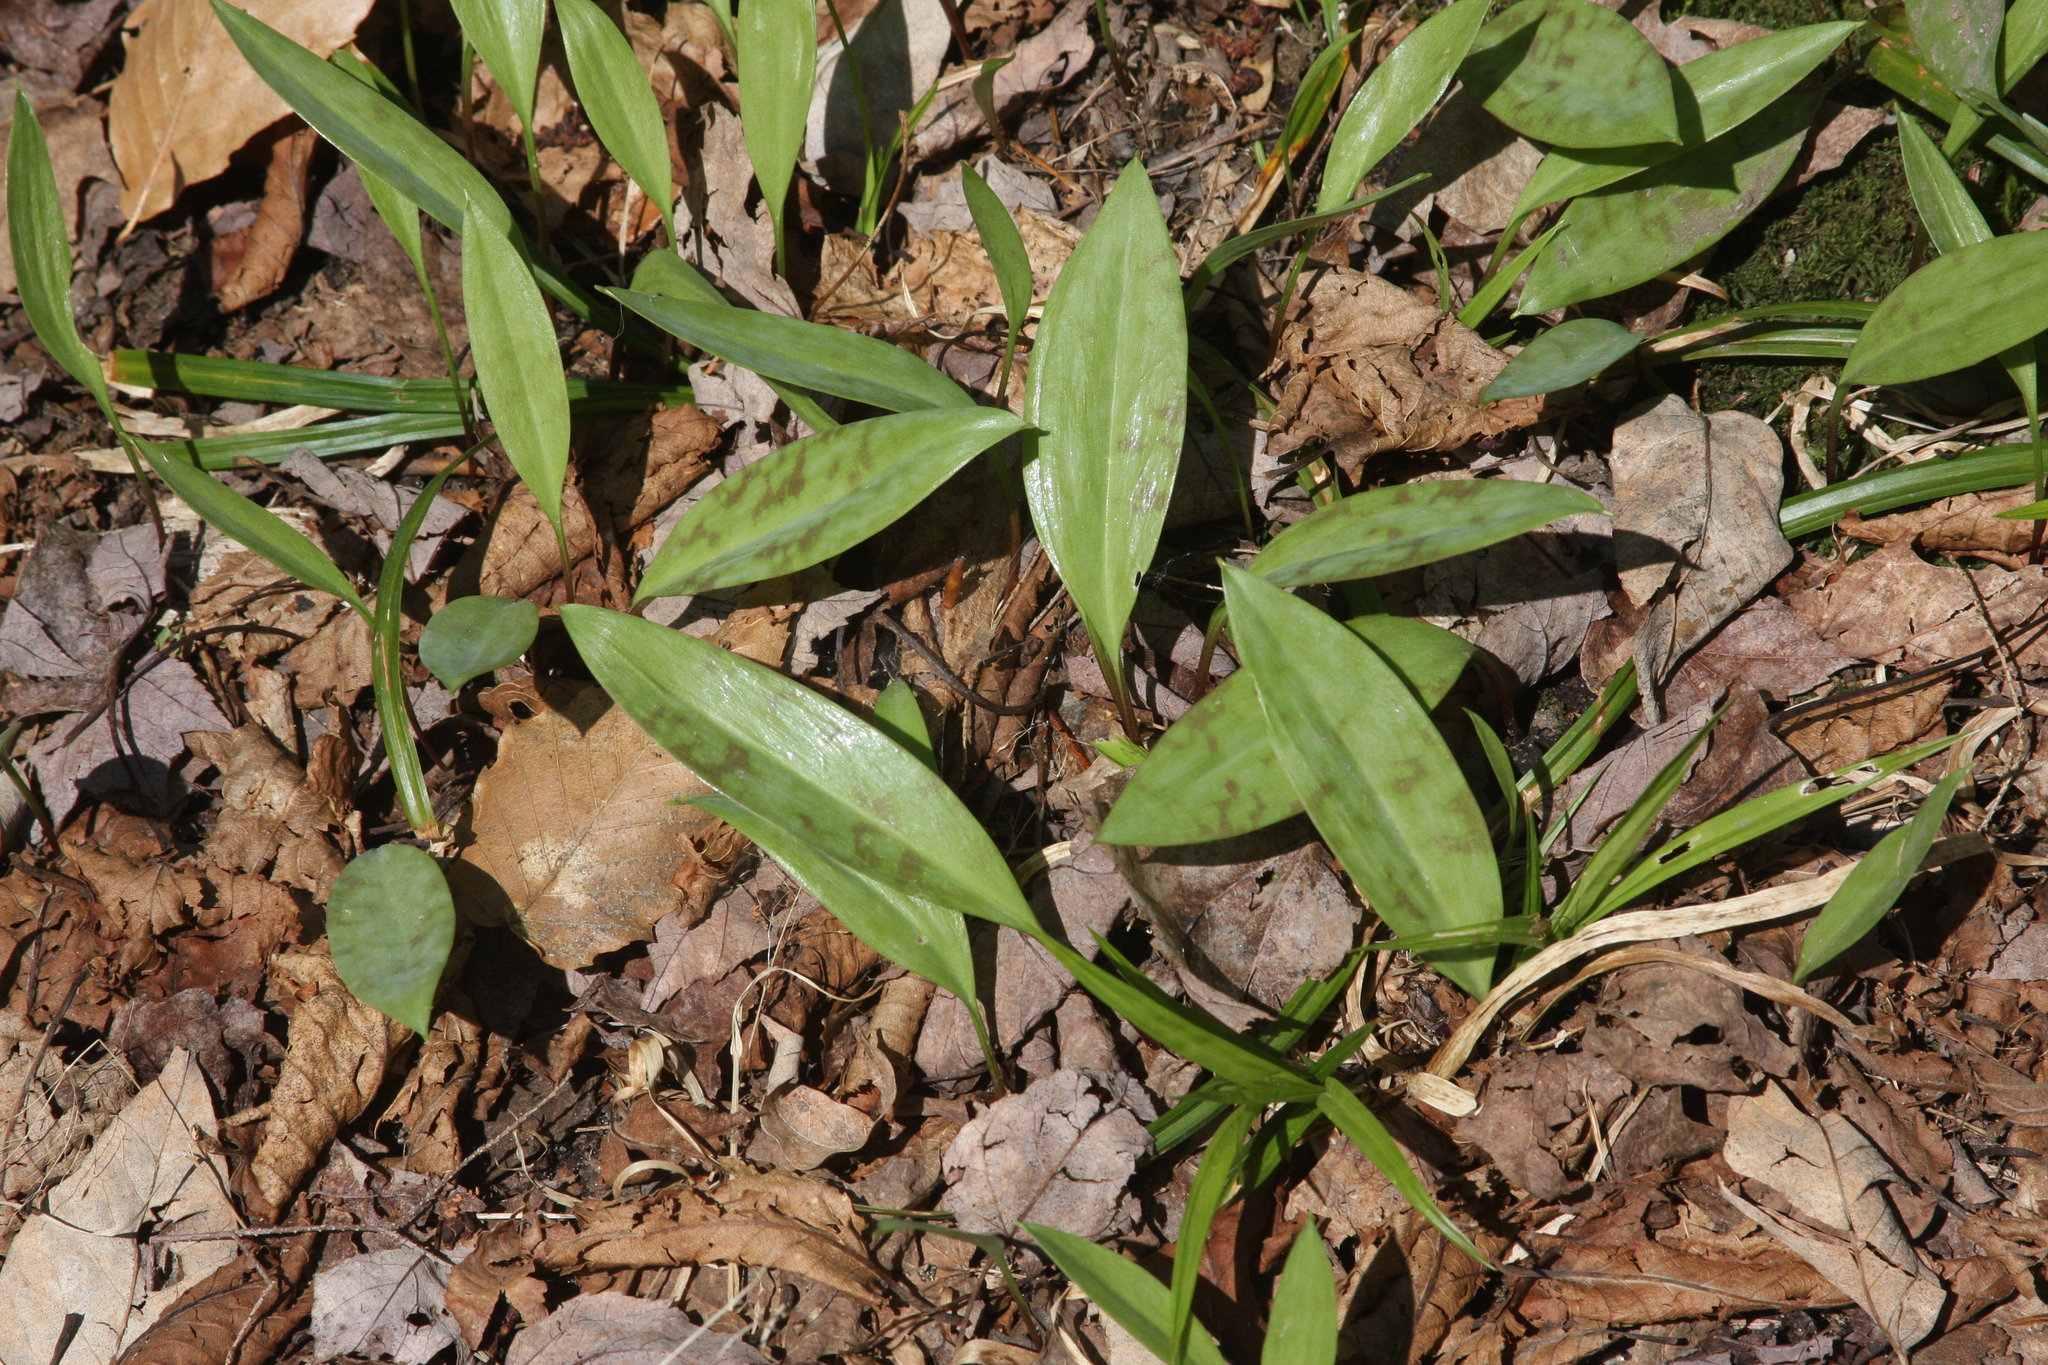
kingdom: Plantae
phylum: Tracheophyta
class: Liliopsida
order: Liliales
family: Liliaceae
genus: Erythronium
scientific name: Erythronium americanum
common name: Yellow adder's-tongue
